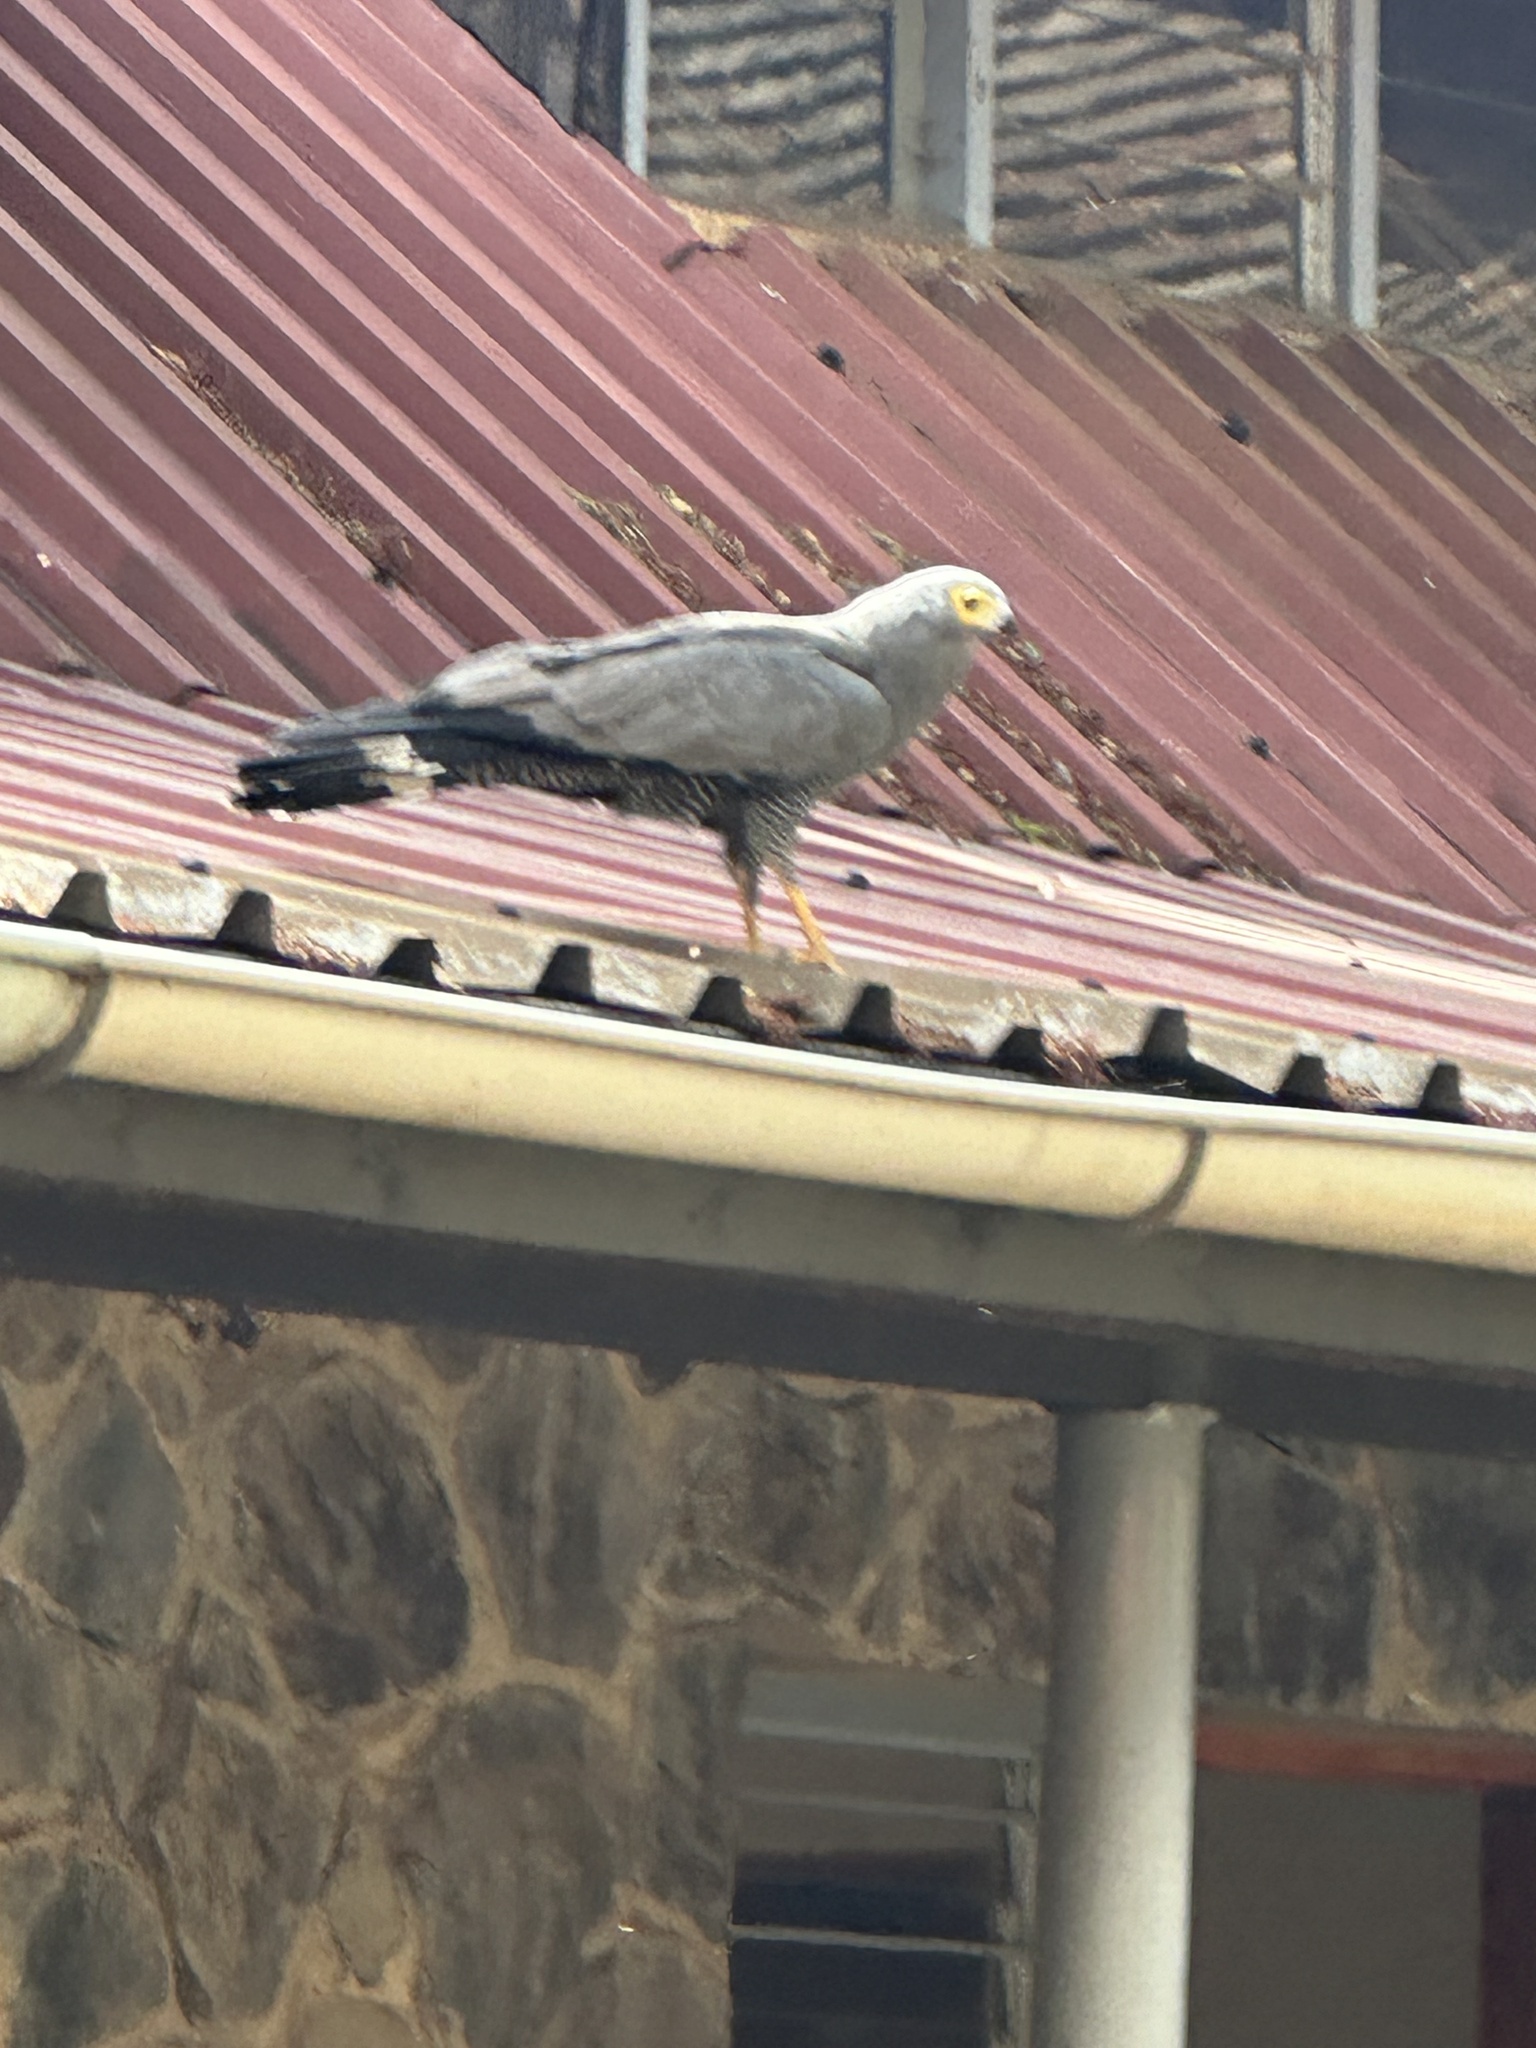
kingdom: Animalia
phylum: Chordata
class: Aves
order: Accipitriformes
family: Accipitridae
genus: Polyboroides
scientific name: Polyboroides typus
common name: African harrier-hawk
